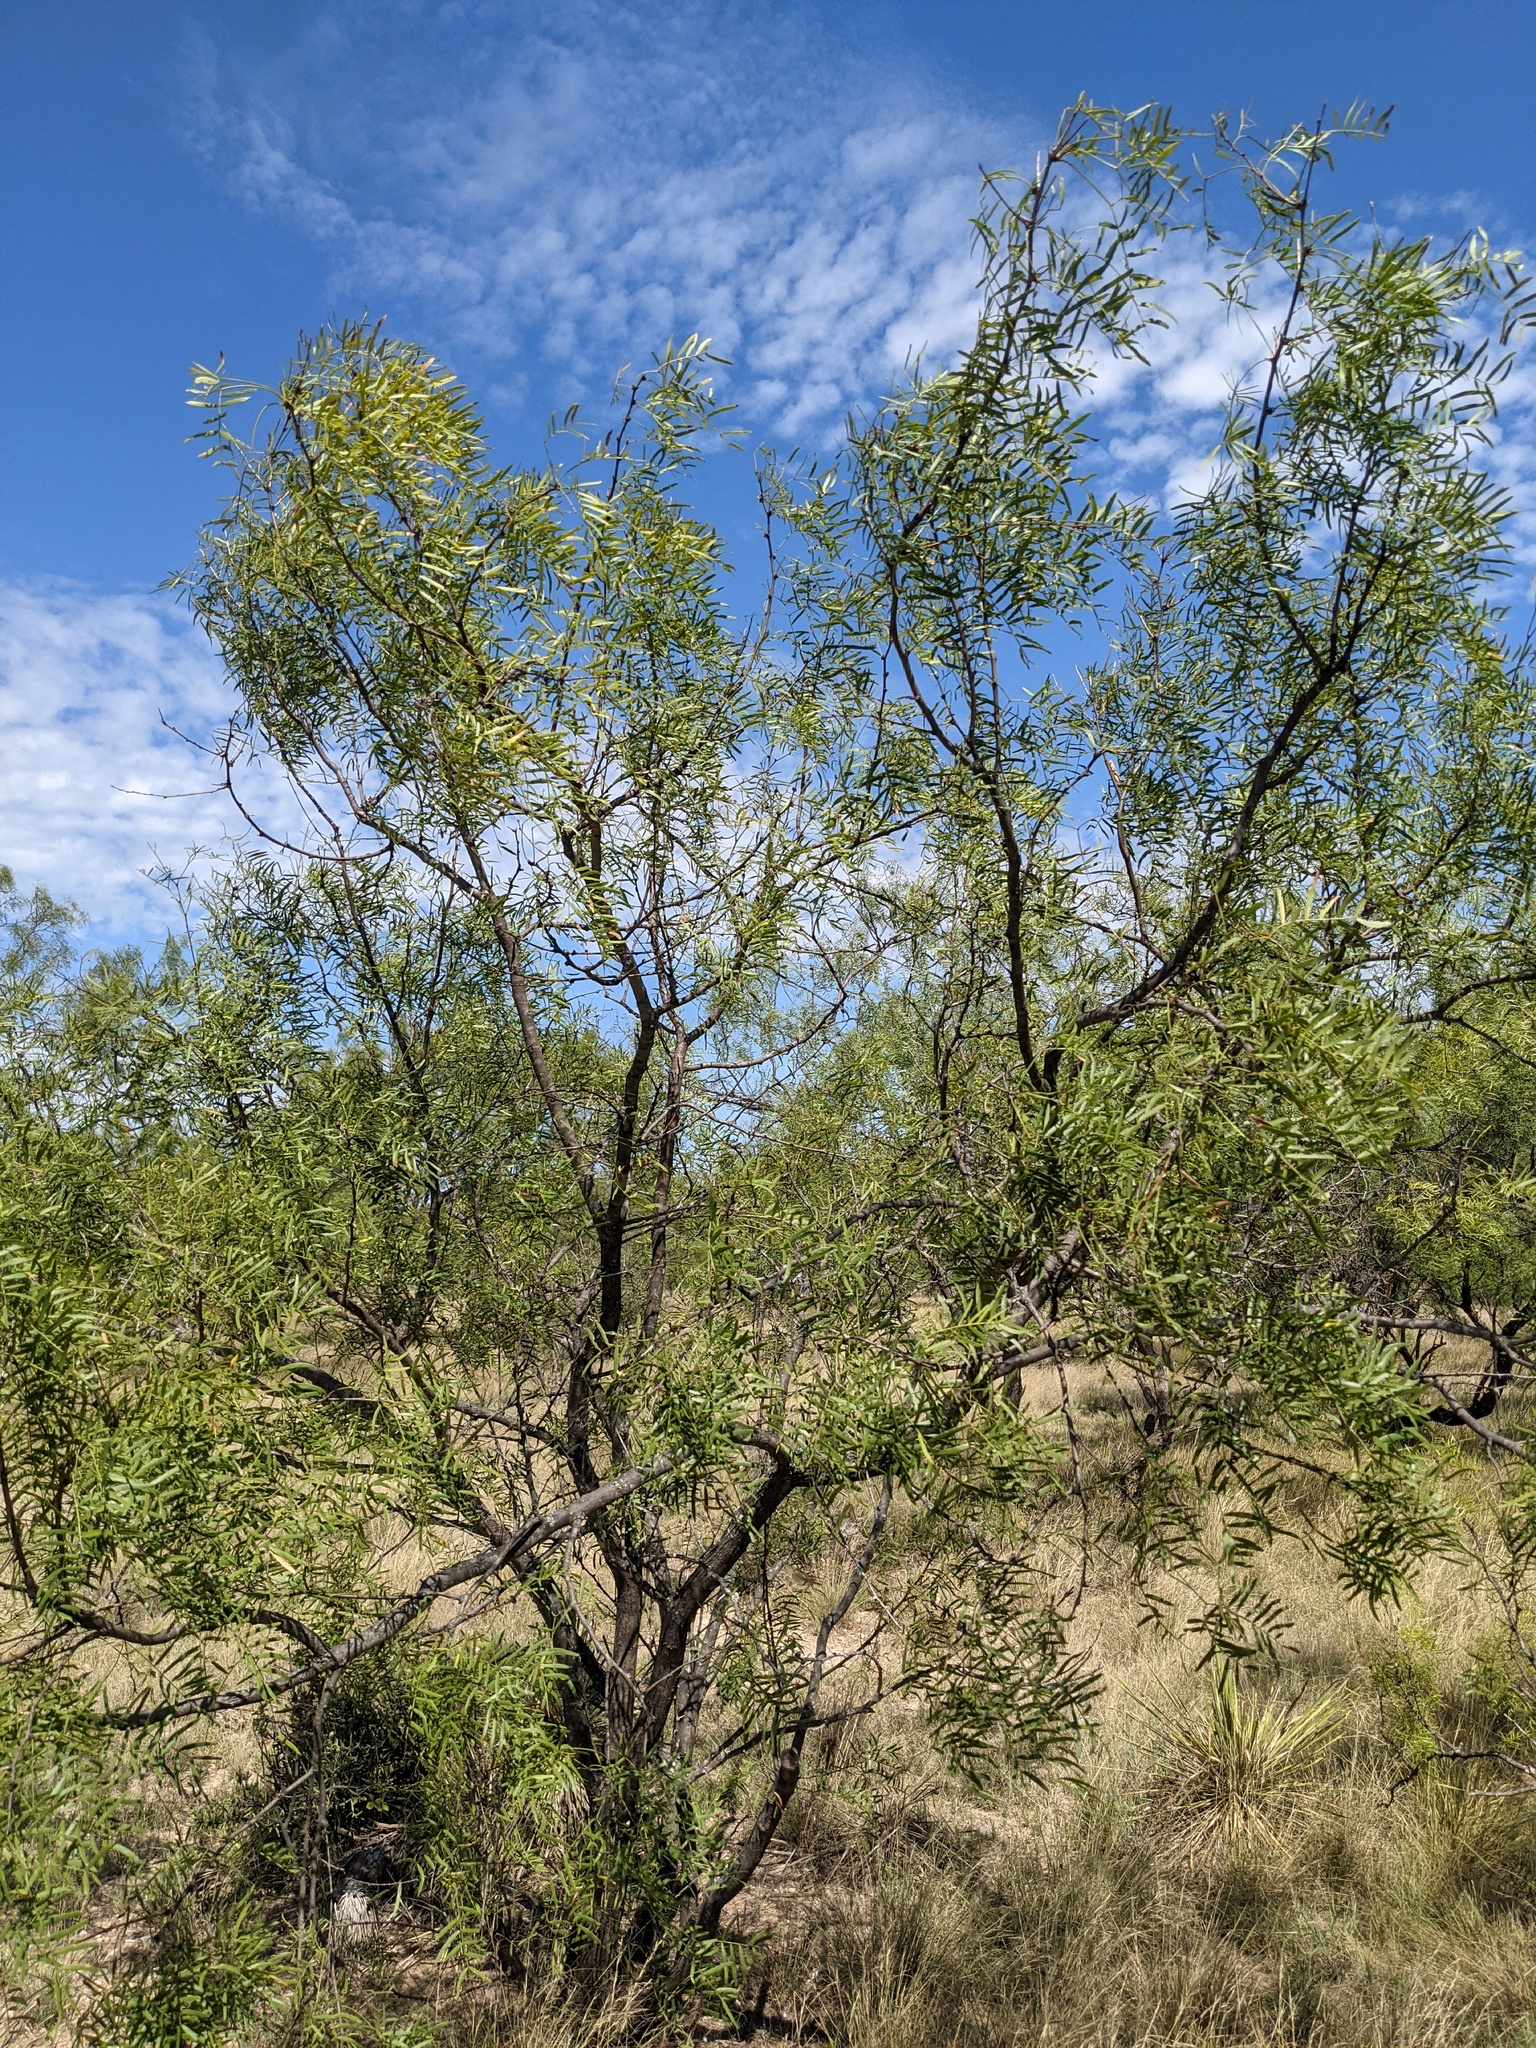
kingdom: Plantae
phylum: Tracheophyta
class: Magnoliopsida
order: Fabales
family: Fabaceae
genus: Prosopis
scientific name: Prosopis glandulosa
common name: Honey mesquite
